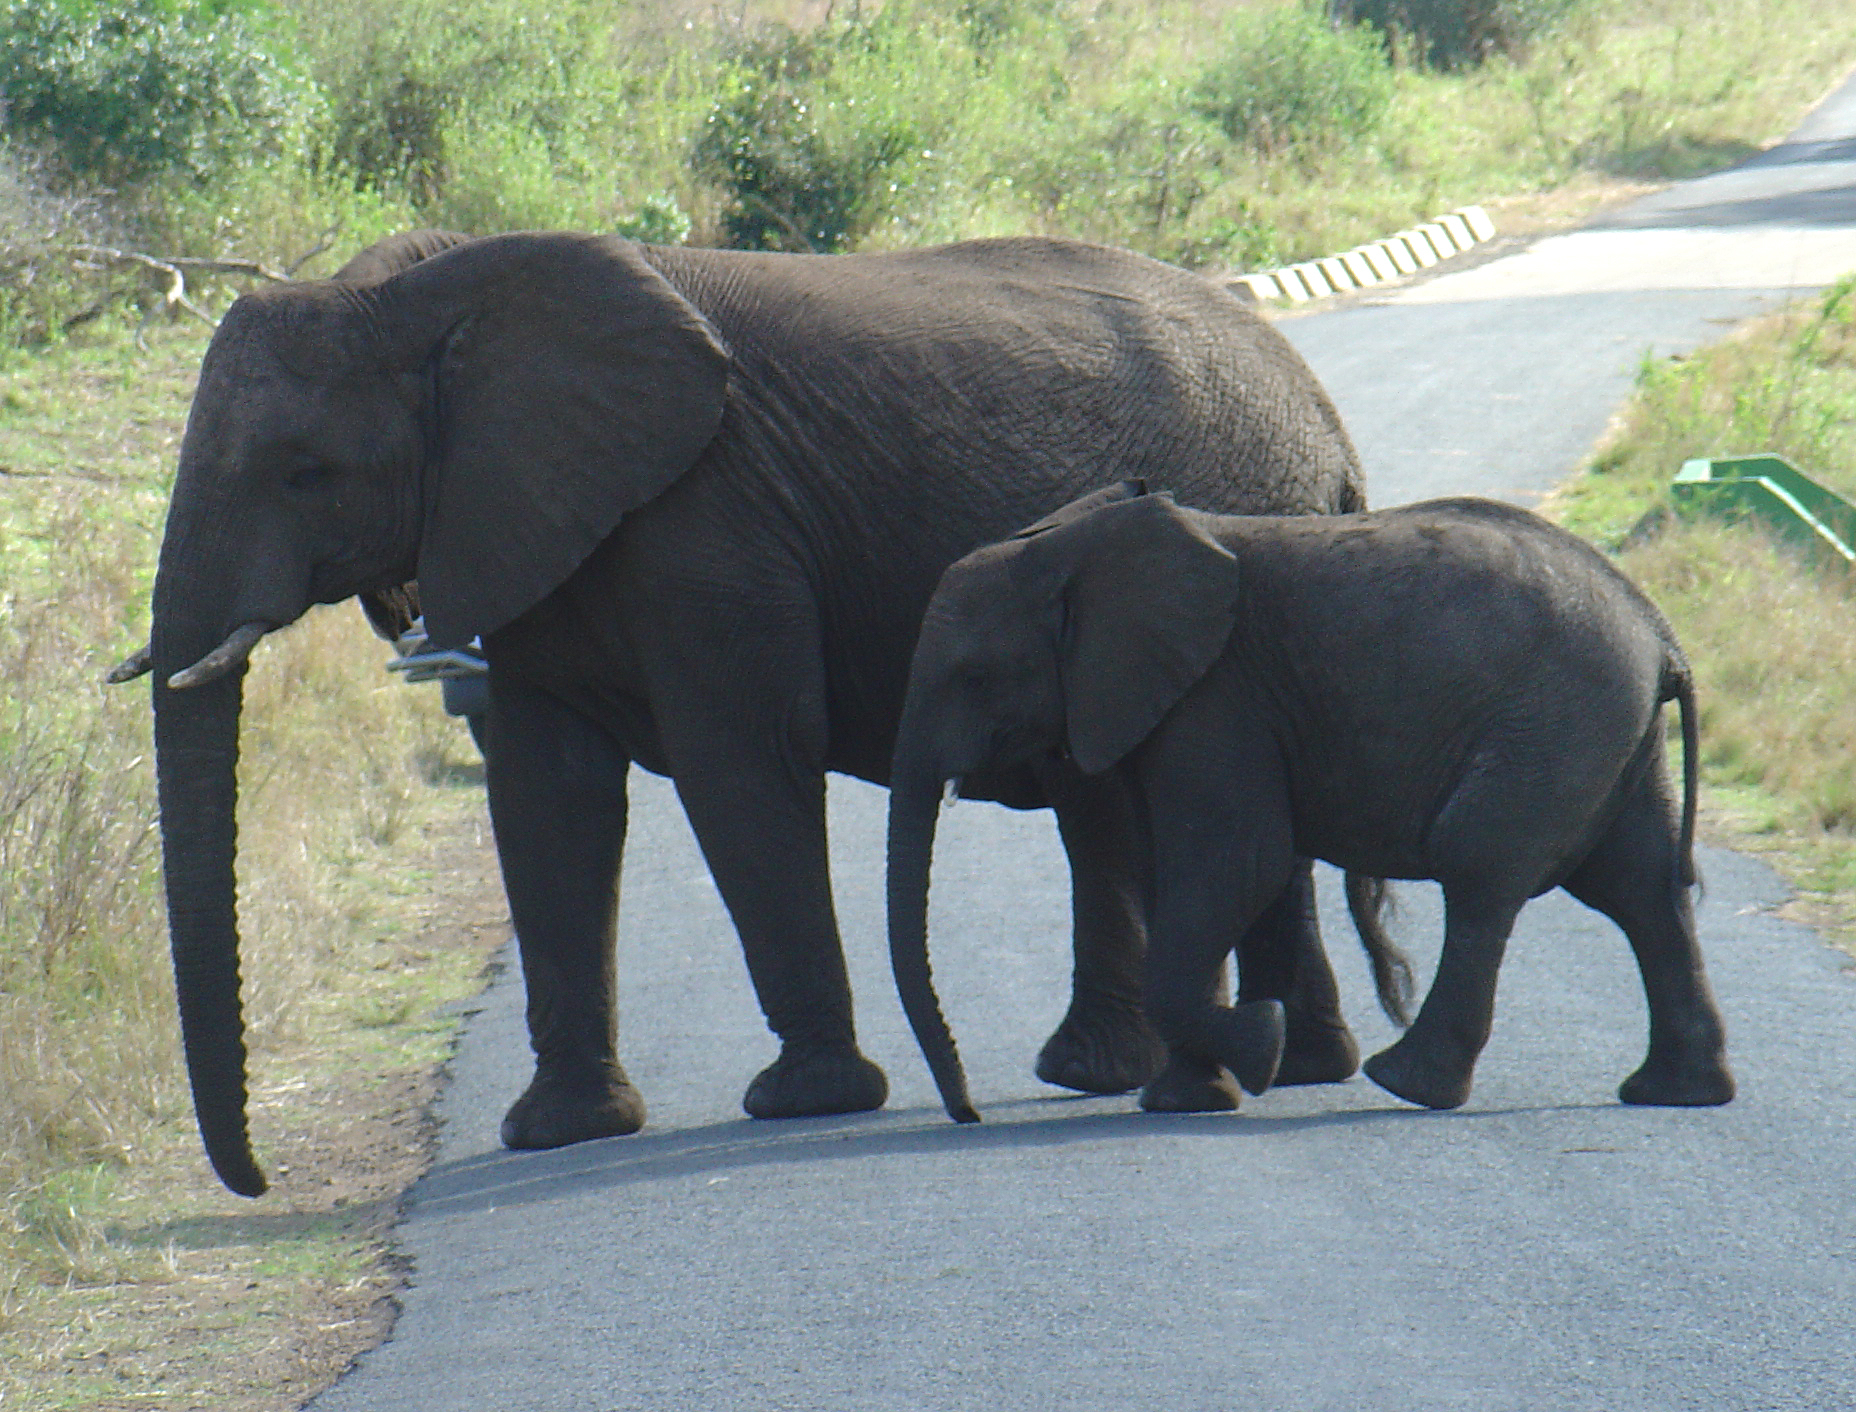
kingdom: Animalia
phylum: Chordata
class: Mammalia
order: Proboscidea
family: Elephantidae
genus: Loxodonta
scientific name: Loxodonta africana
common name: African elephant
